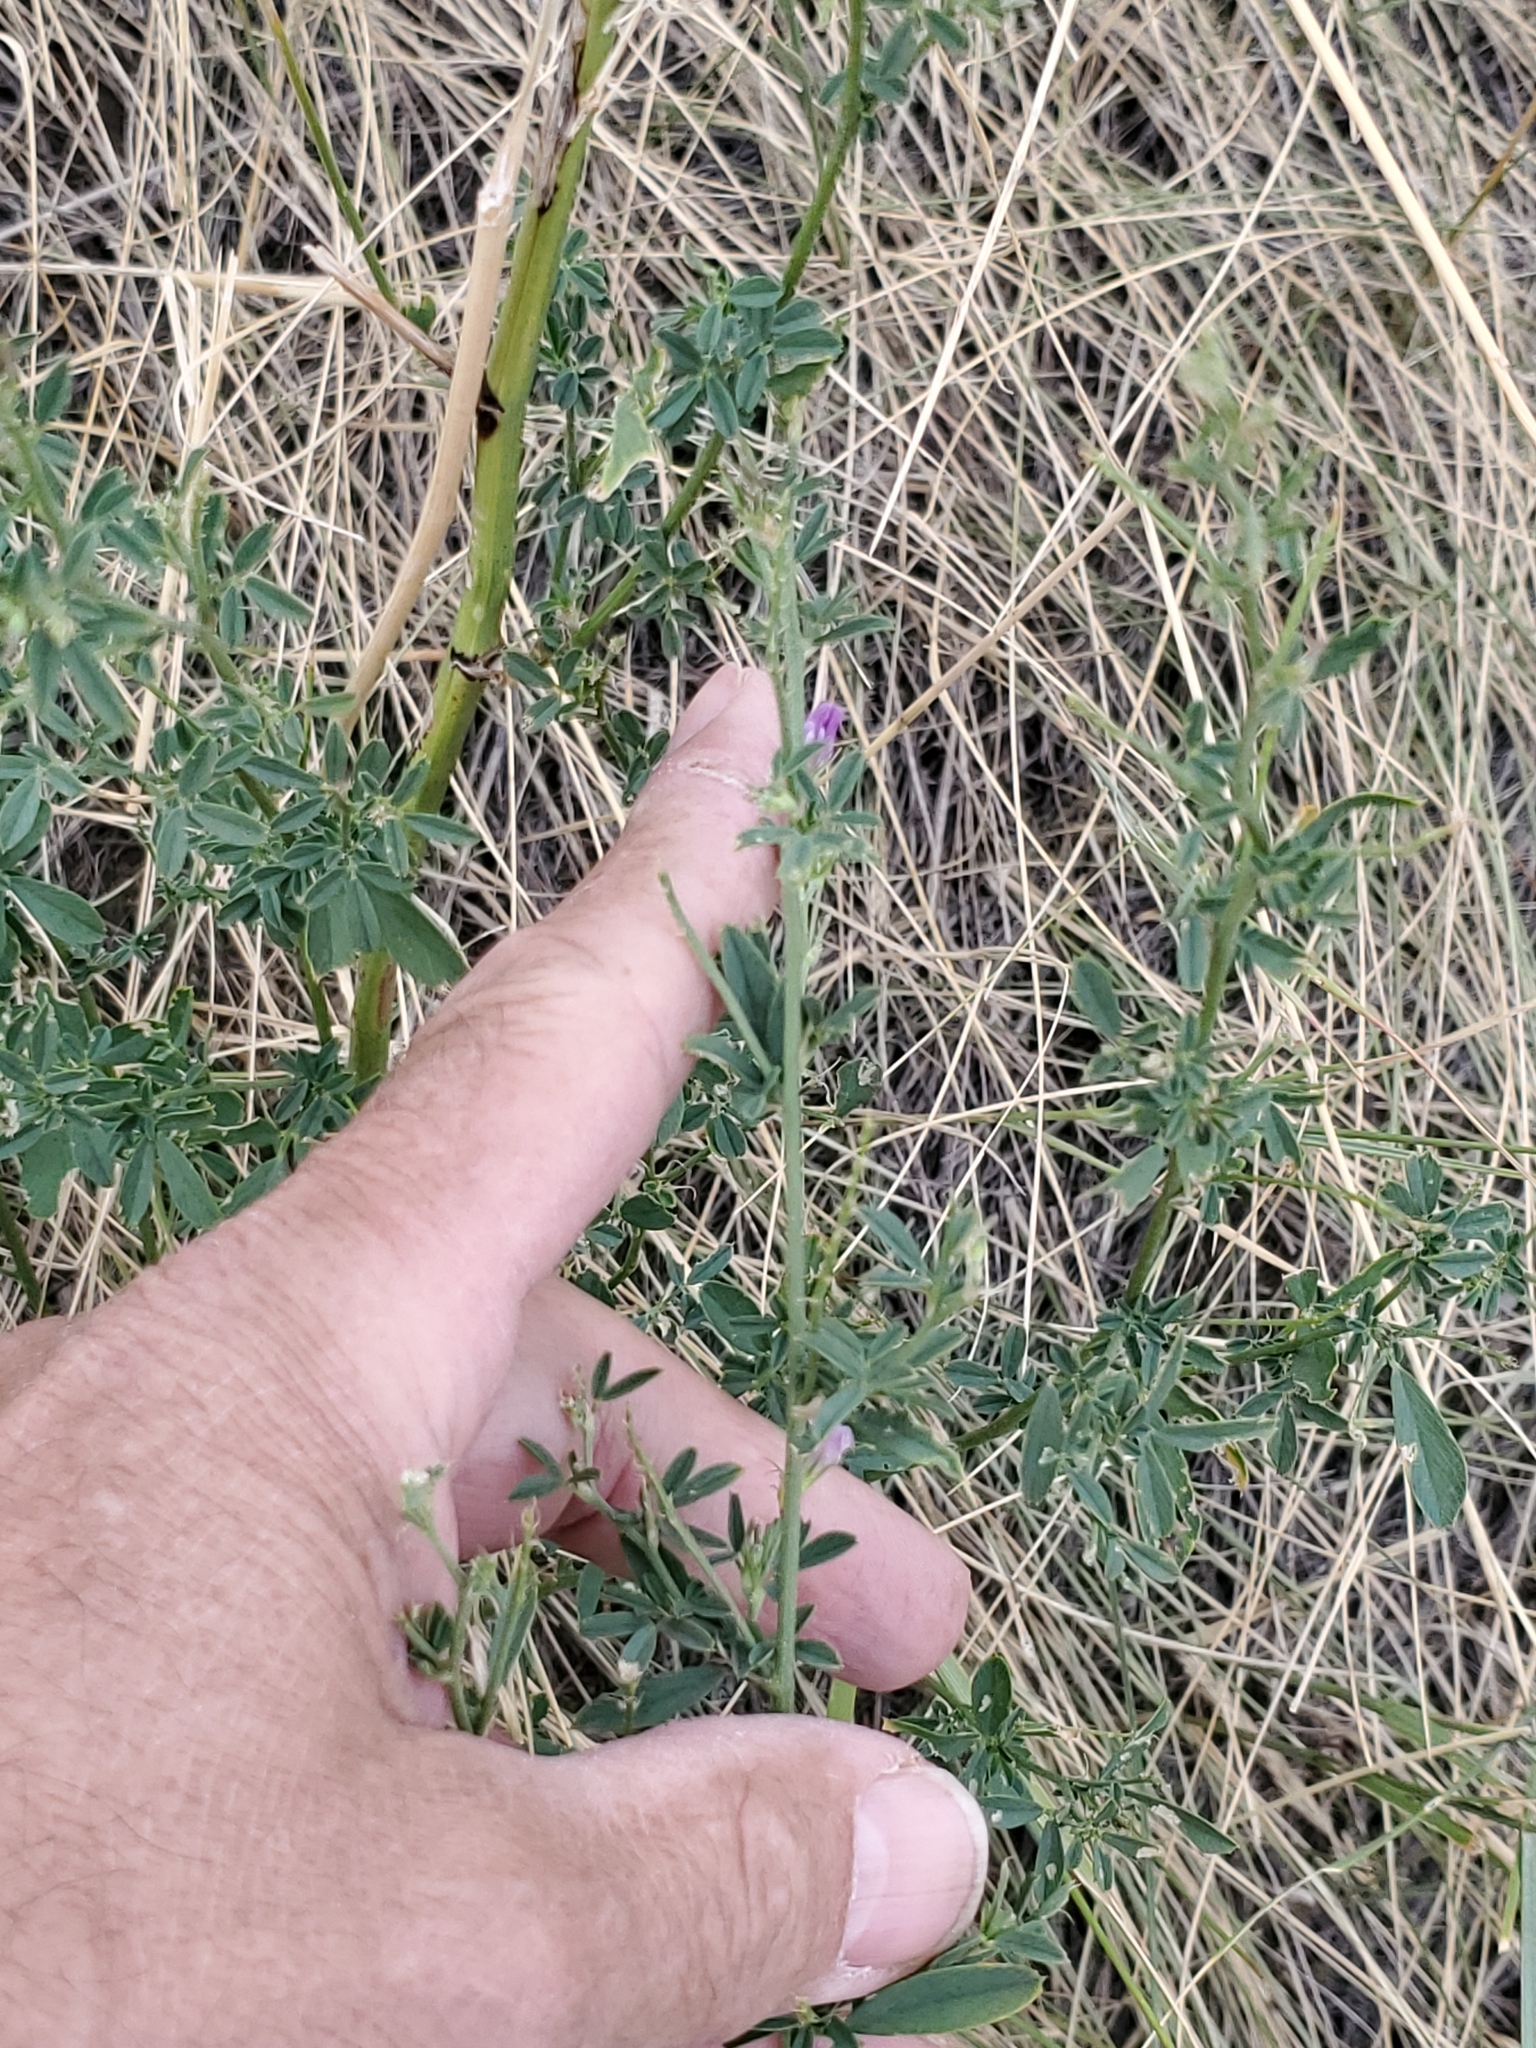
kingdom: Plantae
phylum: Tracheophyta
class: Magnoliopsida
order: Fabales
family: Fabaceae
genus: Medicago
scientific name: Medicago sativa
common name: Alfalfa
